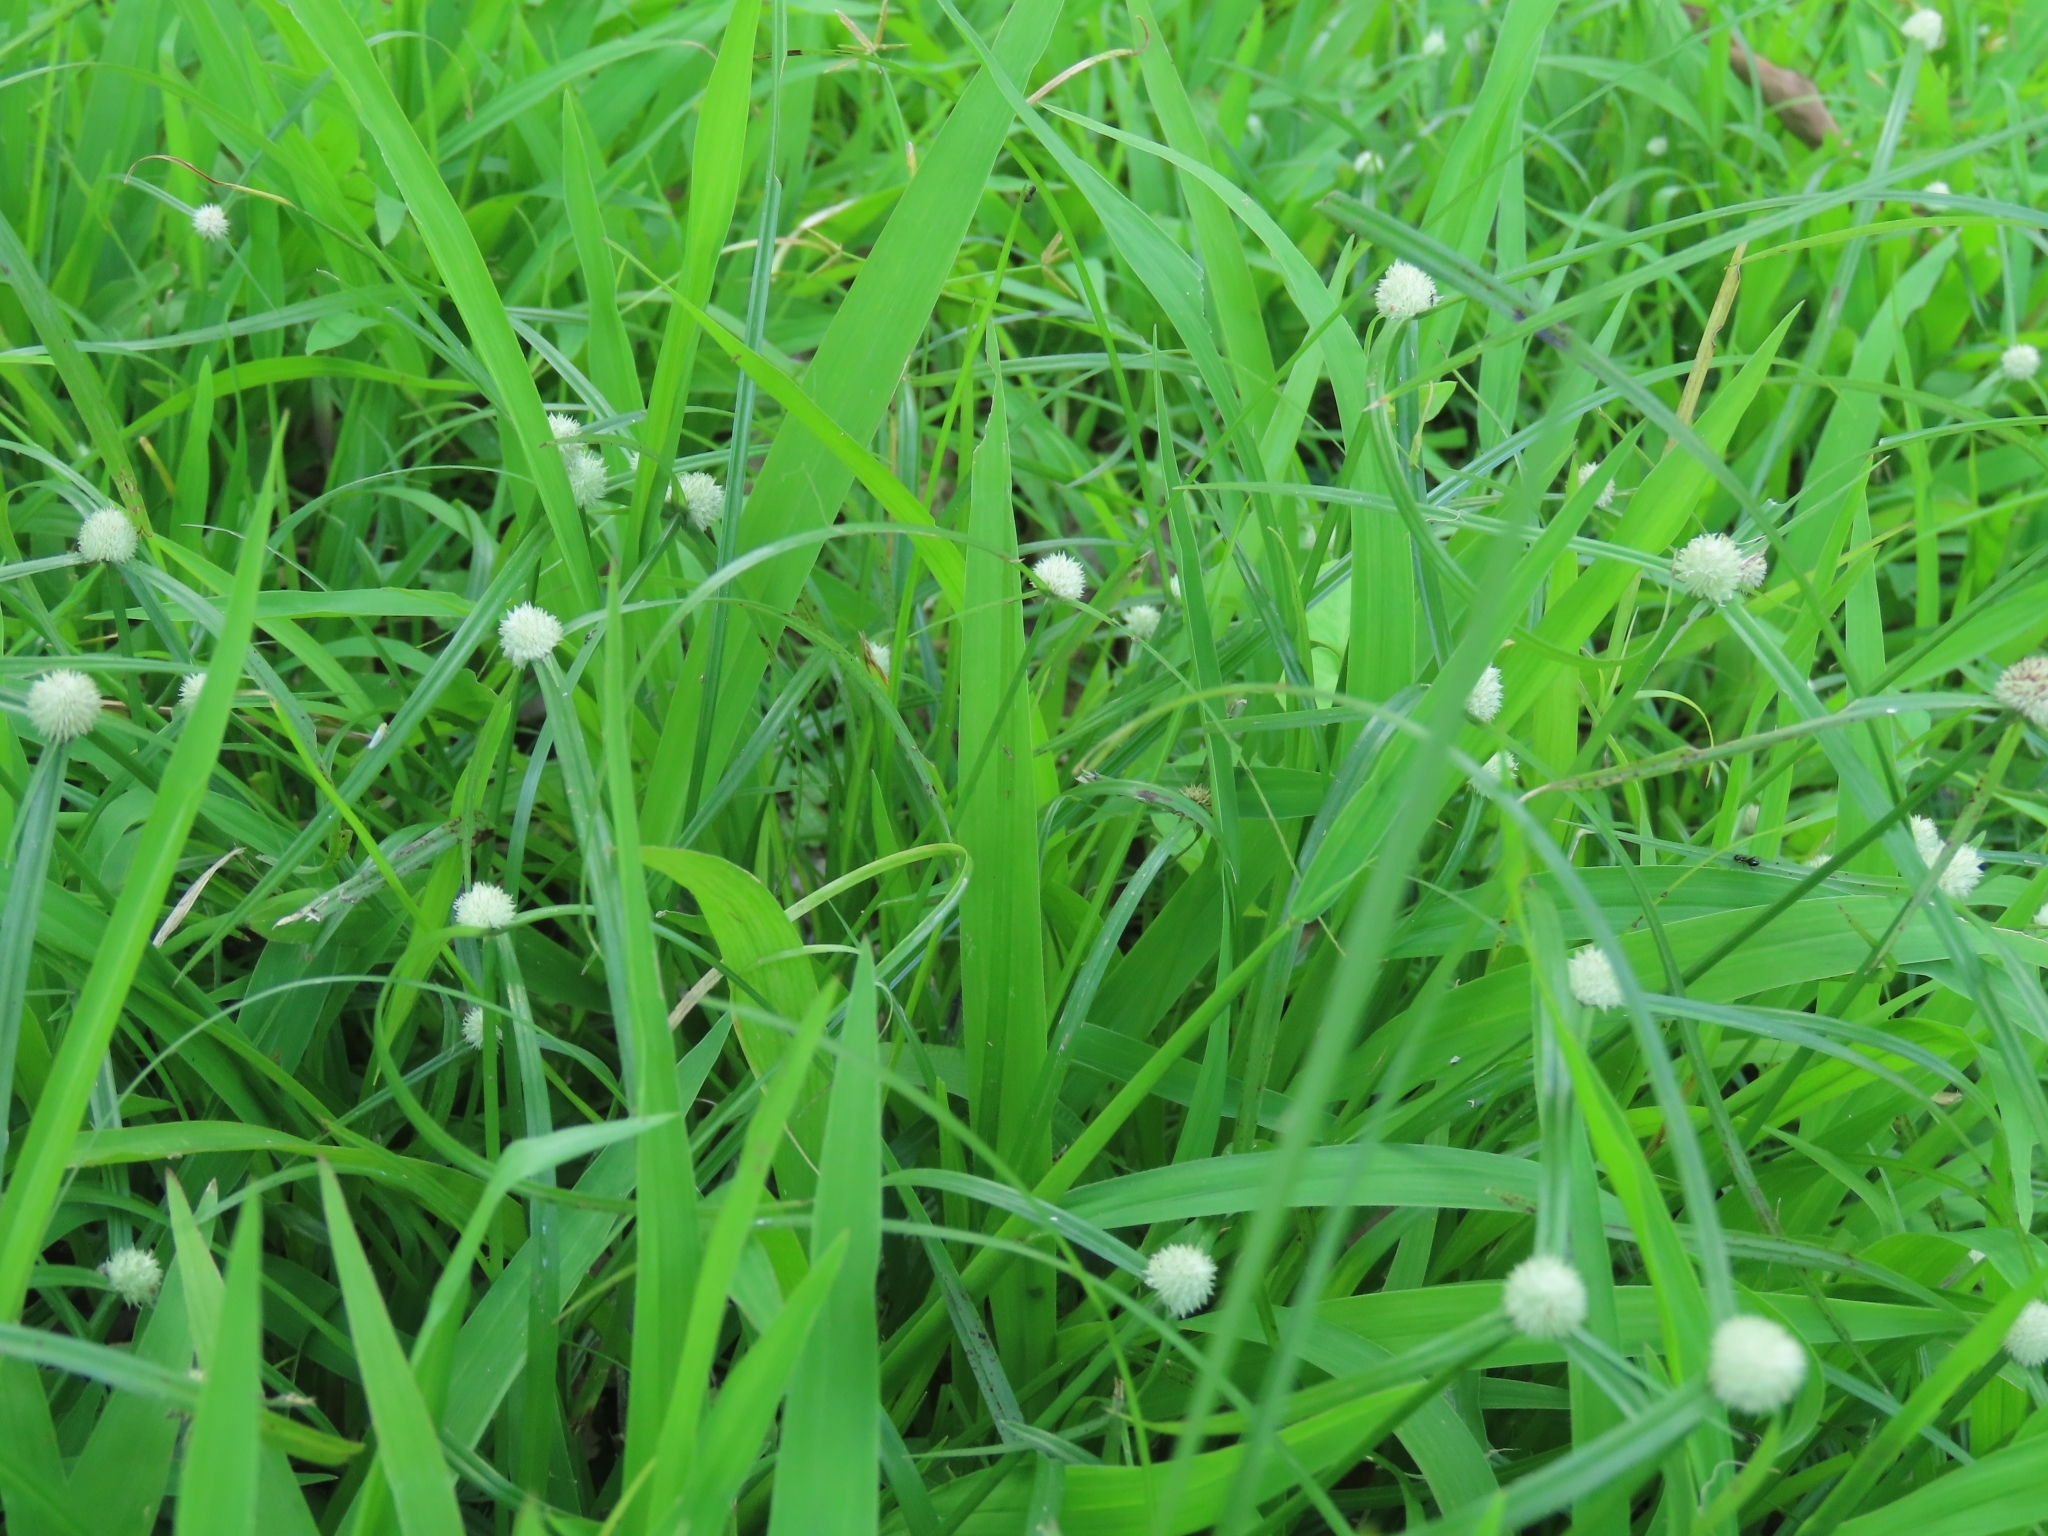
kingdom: Plantae
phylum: Tracheophyta
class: Liliopsida
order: Poales
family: Cyperaceae
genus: Cyperus
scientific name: Cyperus mindorensis
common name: Flatsedge
